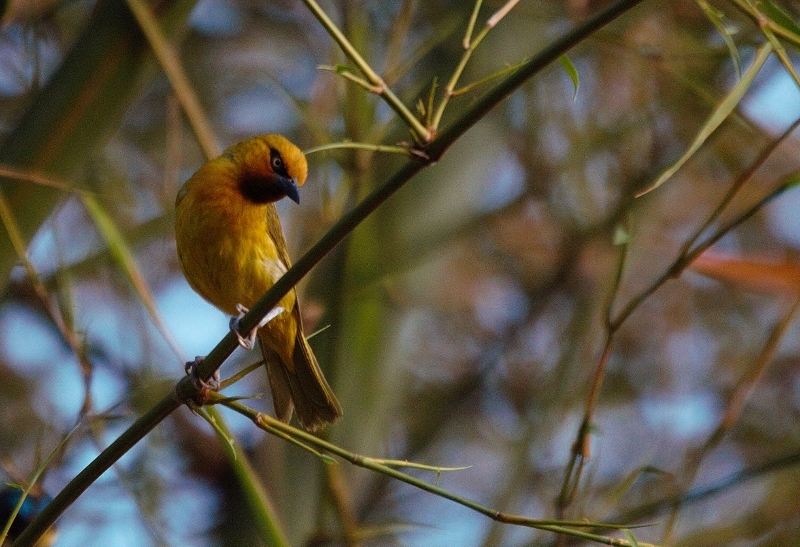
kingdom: Animalia
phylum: Chordata
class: Aves
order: Passeriformes
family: Ploceidae
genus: Ploceus
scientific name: Ploceus ocularis
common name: Spectacled weaver
